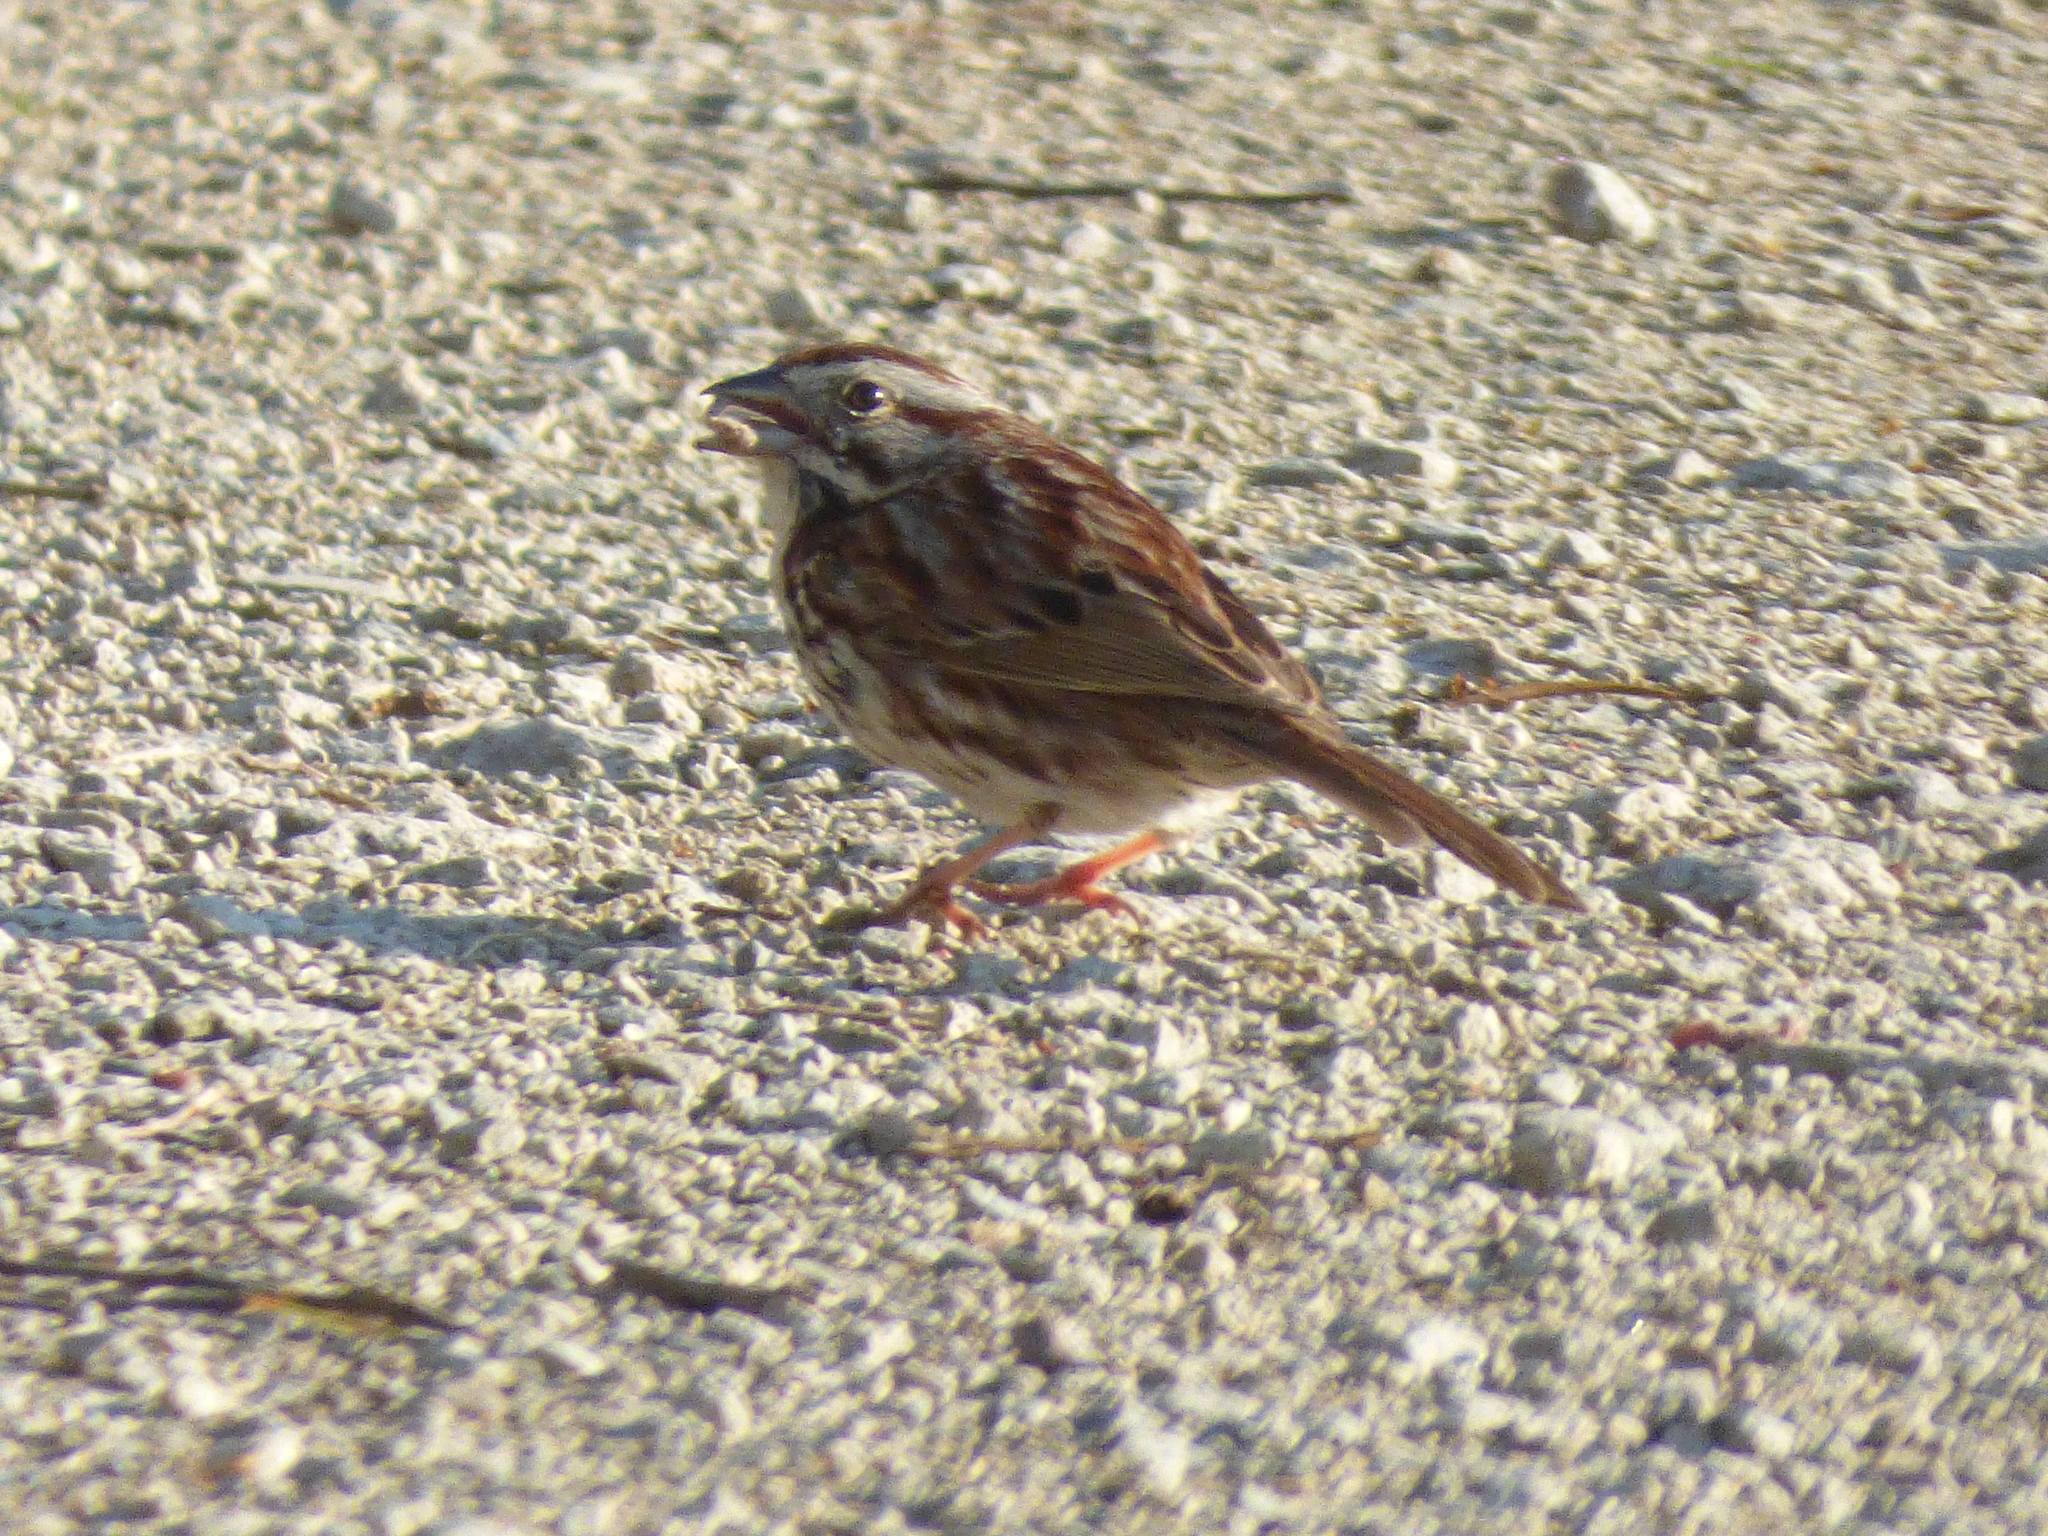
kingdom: Animalia
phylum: Chordata
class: Aves
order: Passeriformes
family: Passerellidae
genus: Melospiza
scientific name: Melospiza melodia
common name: Song sparrow
